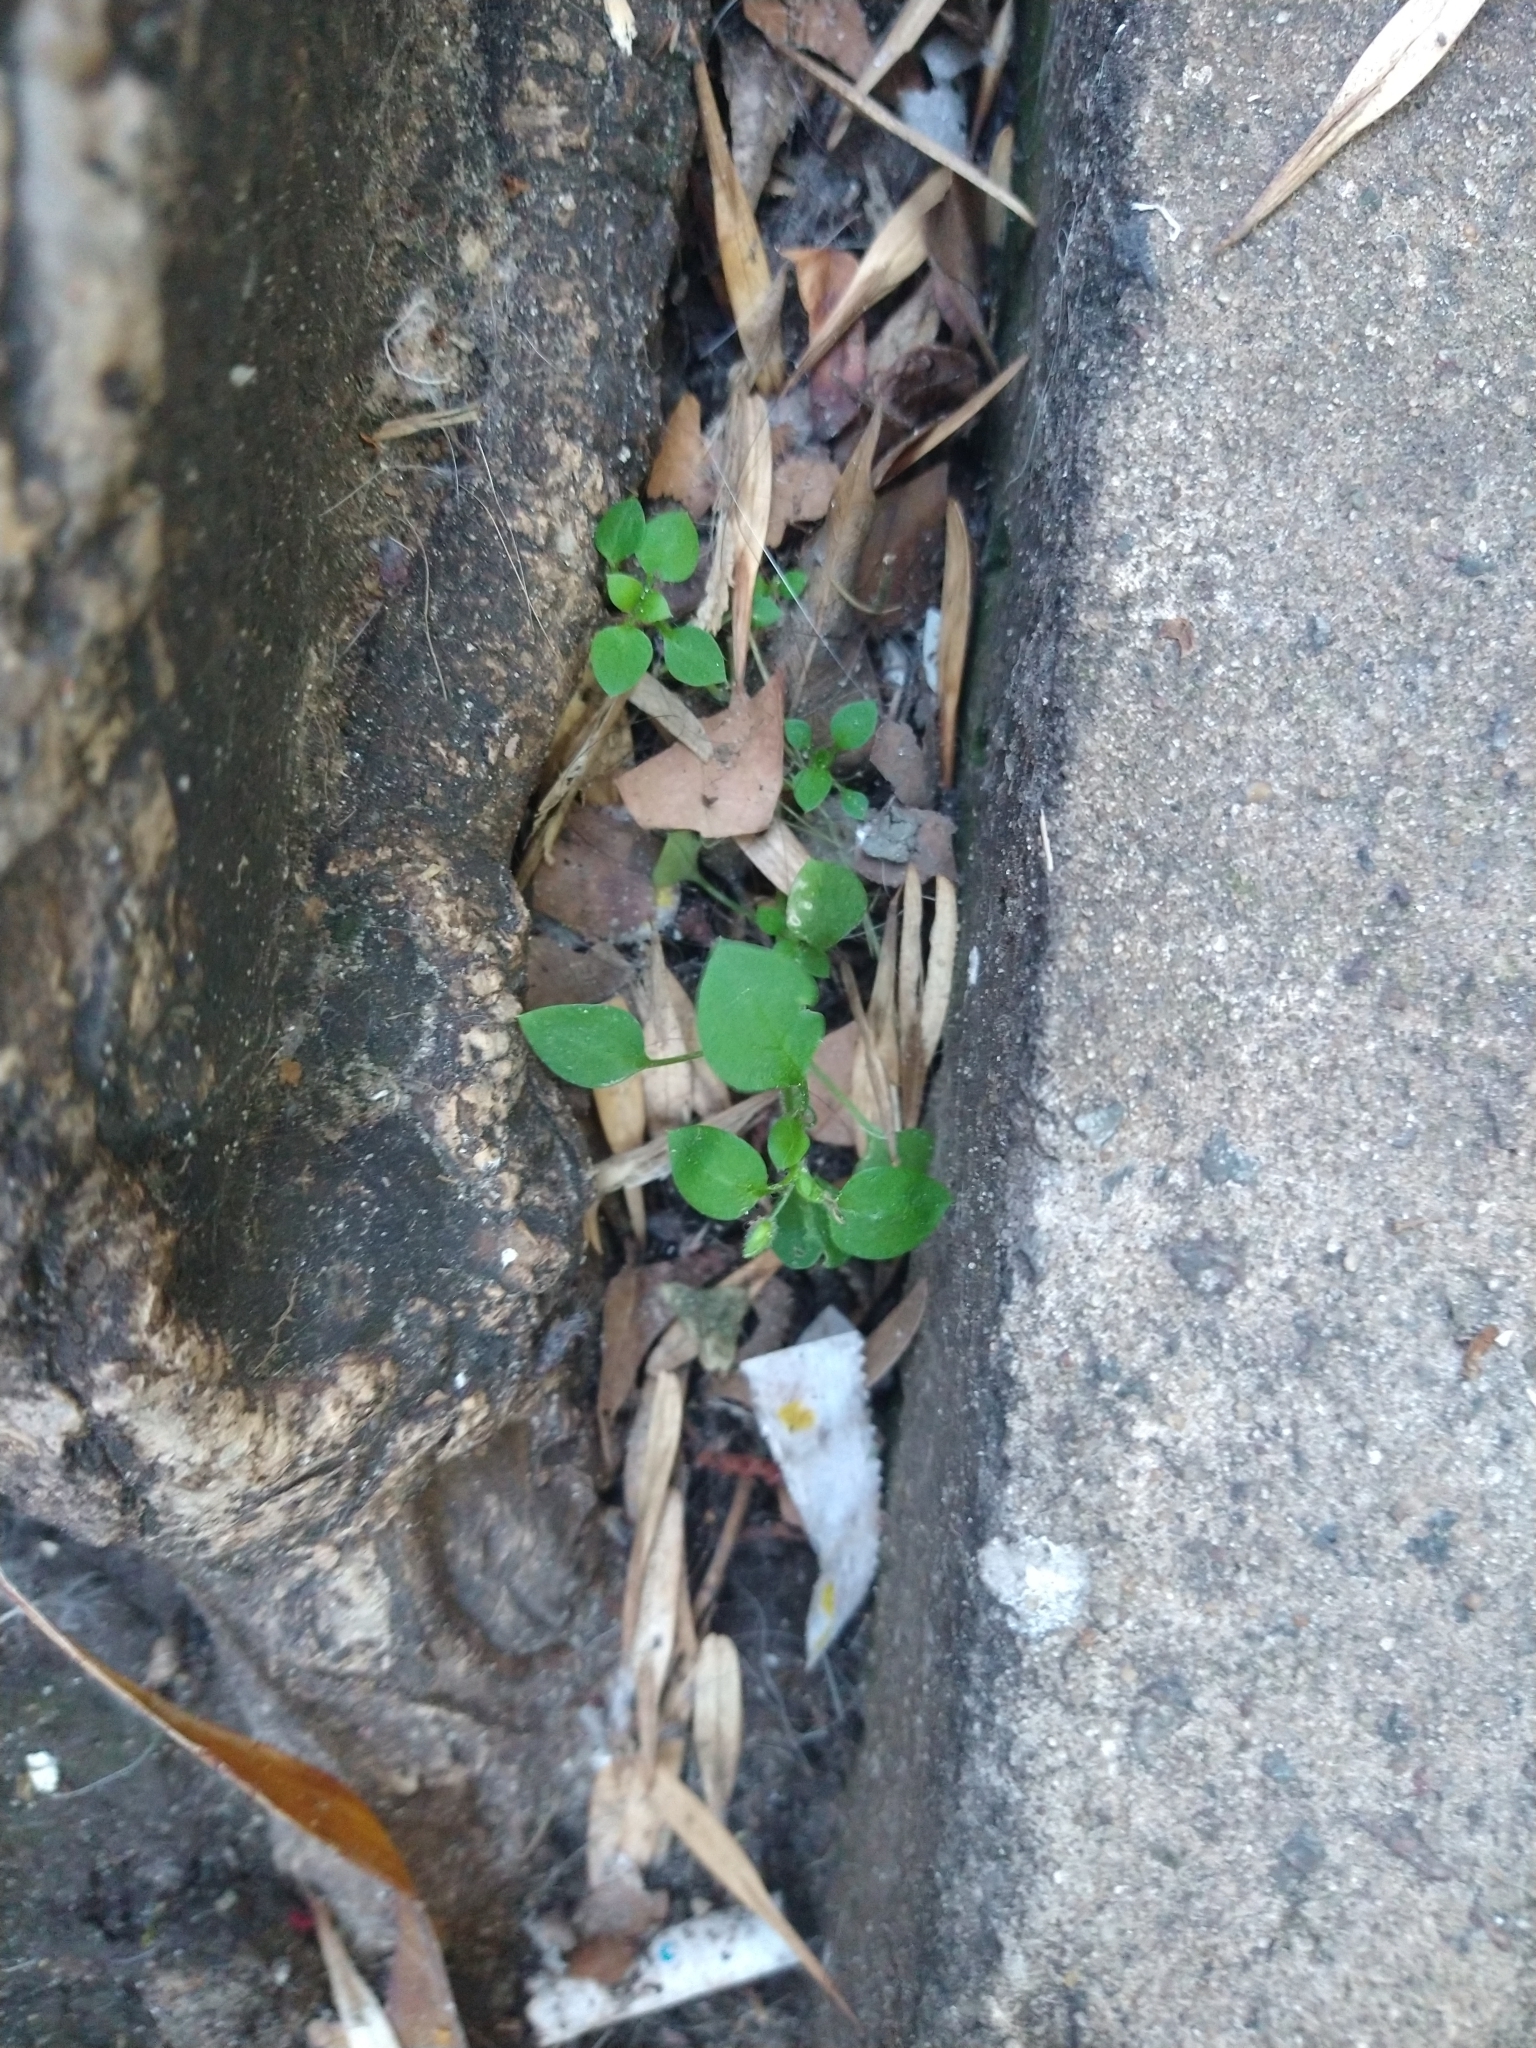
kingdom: Plantae
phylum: Tracheophyta
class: Magnoliopsida
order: Caryophyllales
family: Caryophyllaceae
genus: Stellaria
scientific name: Stellaria media
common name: Common chickweed
